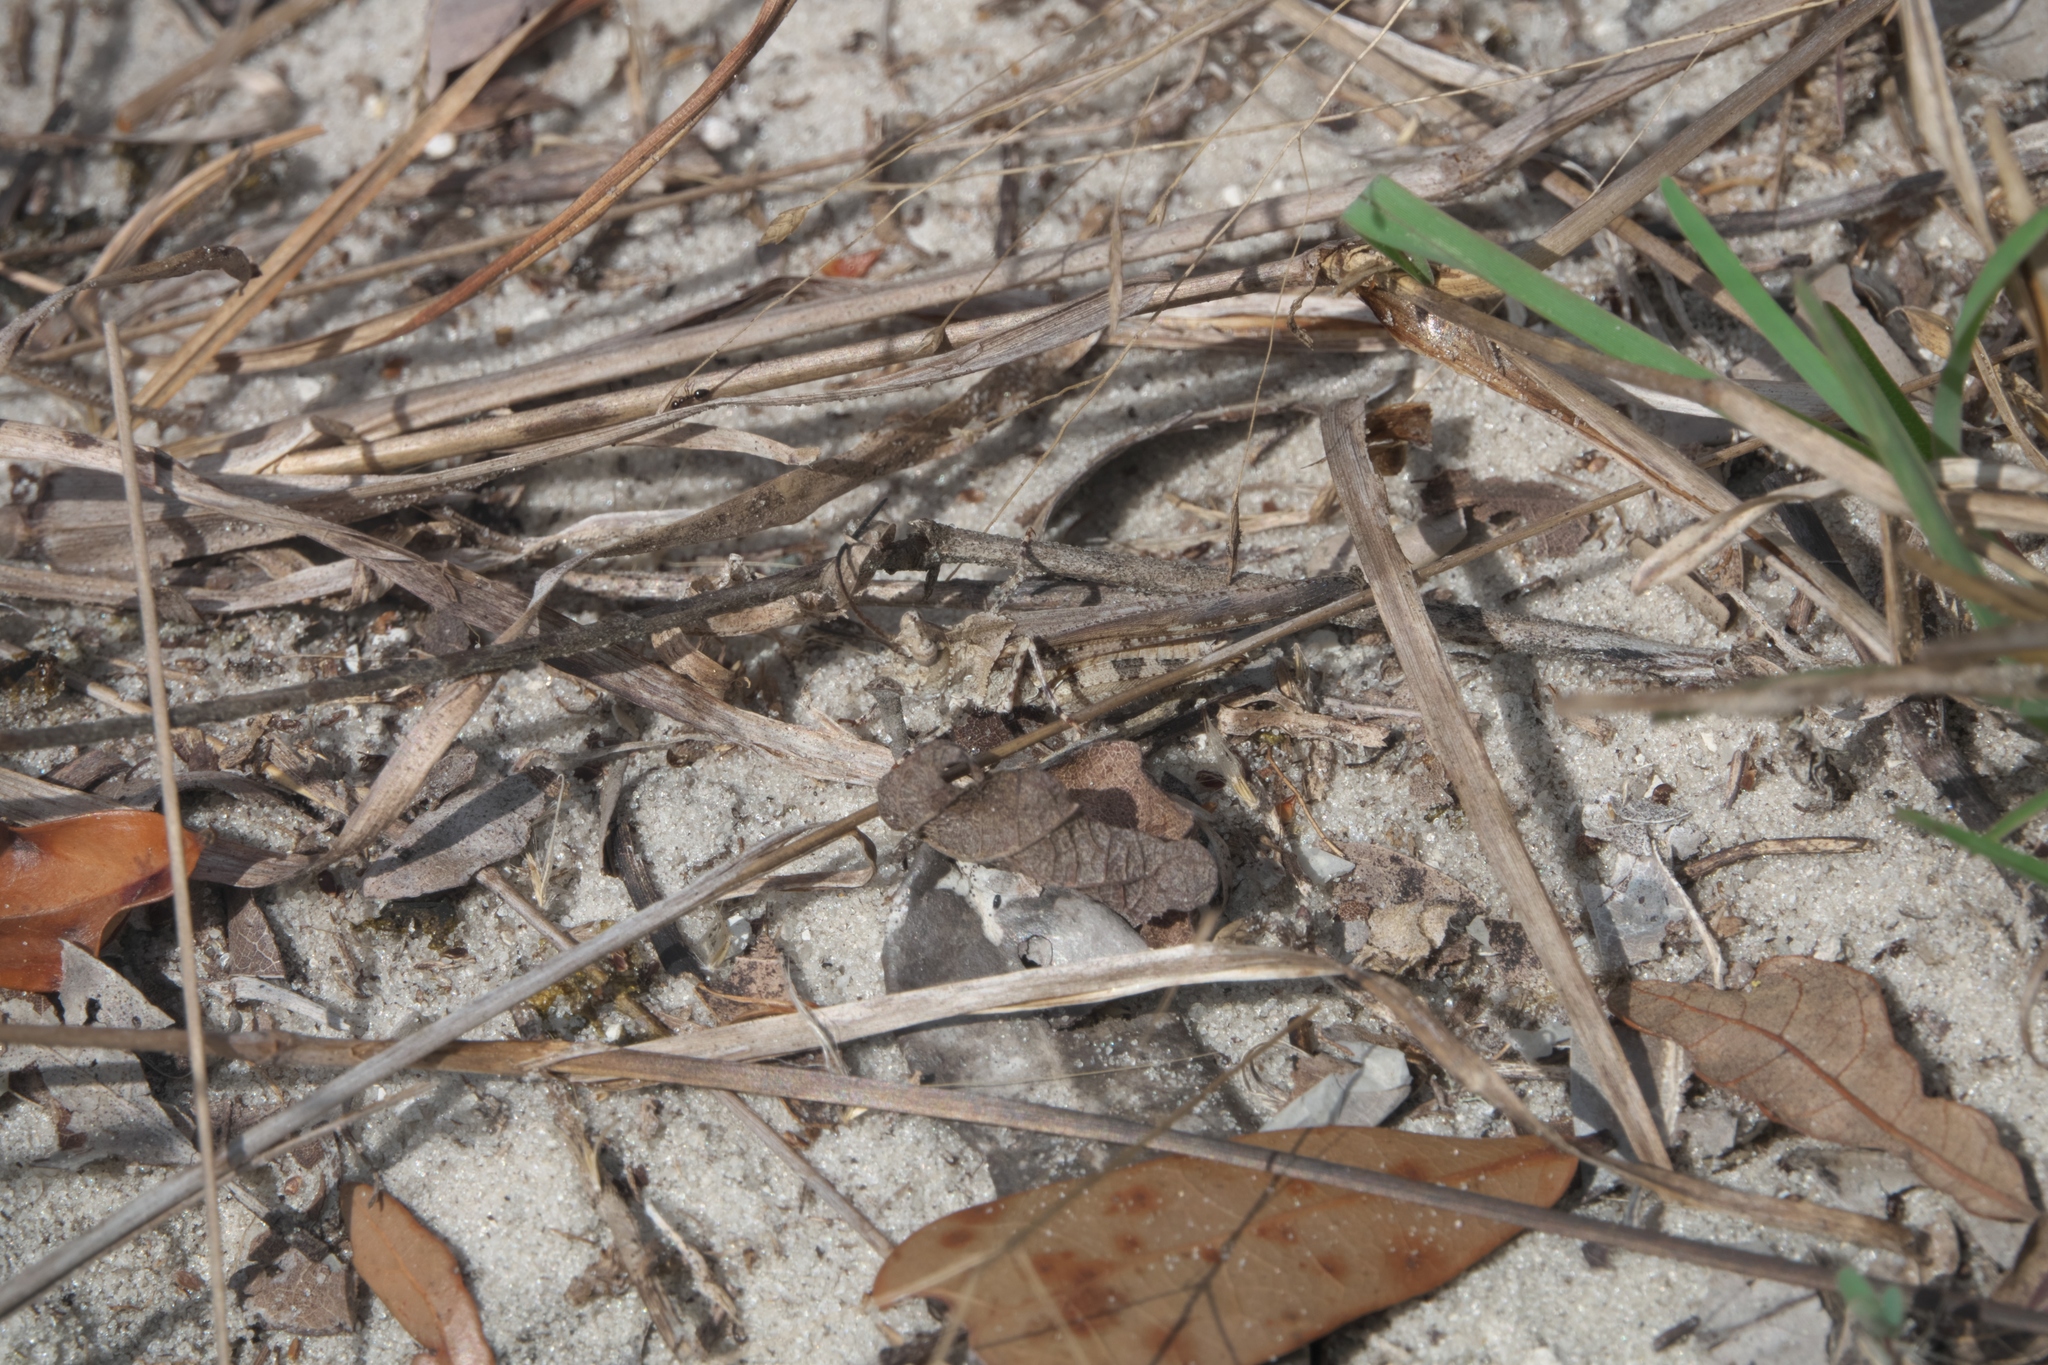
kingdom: Animalia
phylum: Arthropoda
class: Insecta
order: Orthoptera
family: Acrididae
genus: Psinidia
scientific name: Psinidia fenestralis
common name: Long-horned locust
